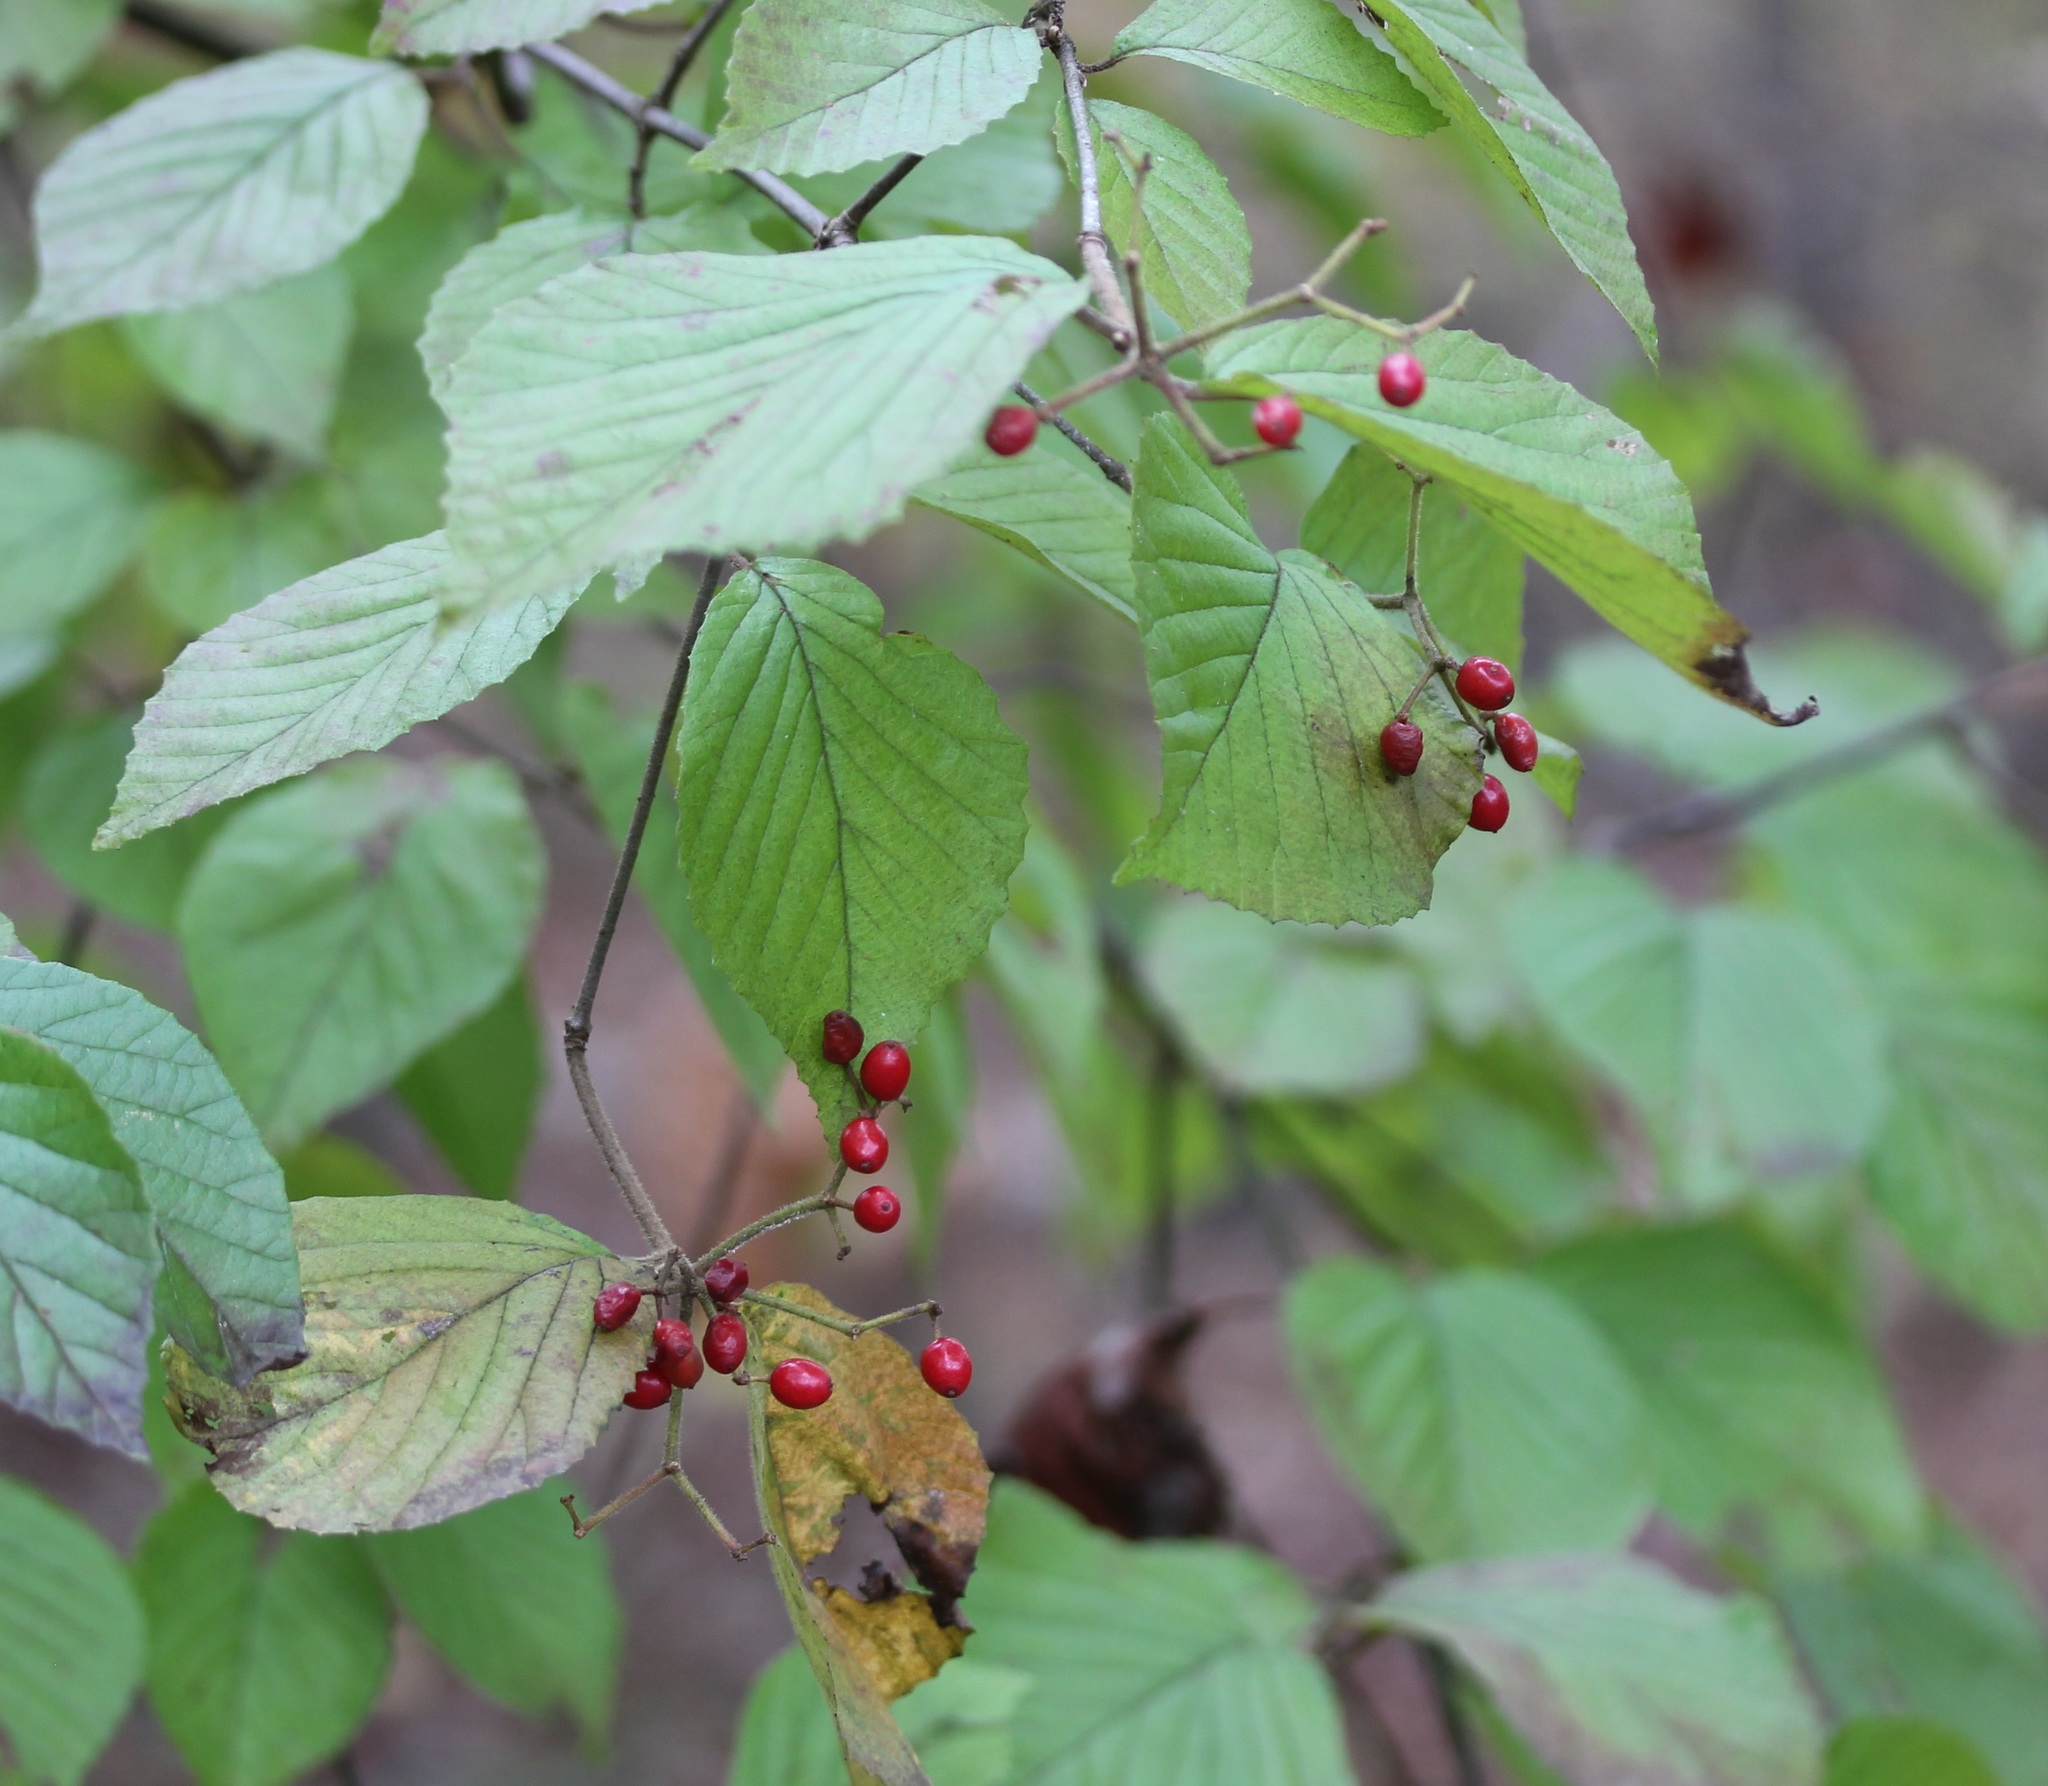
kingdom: Plantae
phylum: Tracheophyta
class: Magnoliopsida
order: Dipsacales
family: Viburnaceae
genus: Viburnum
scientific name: Viburnum dilatatum
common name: Linden arrowwood
